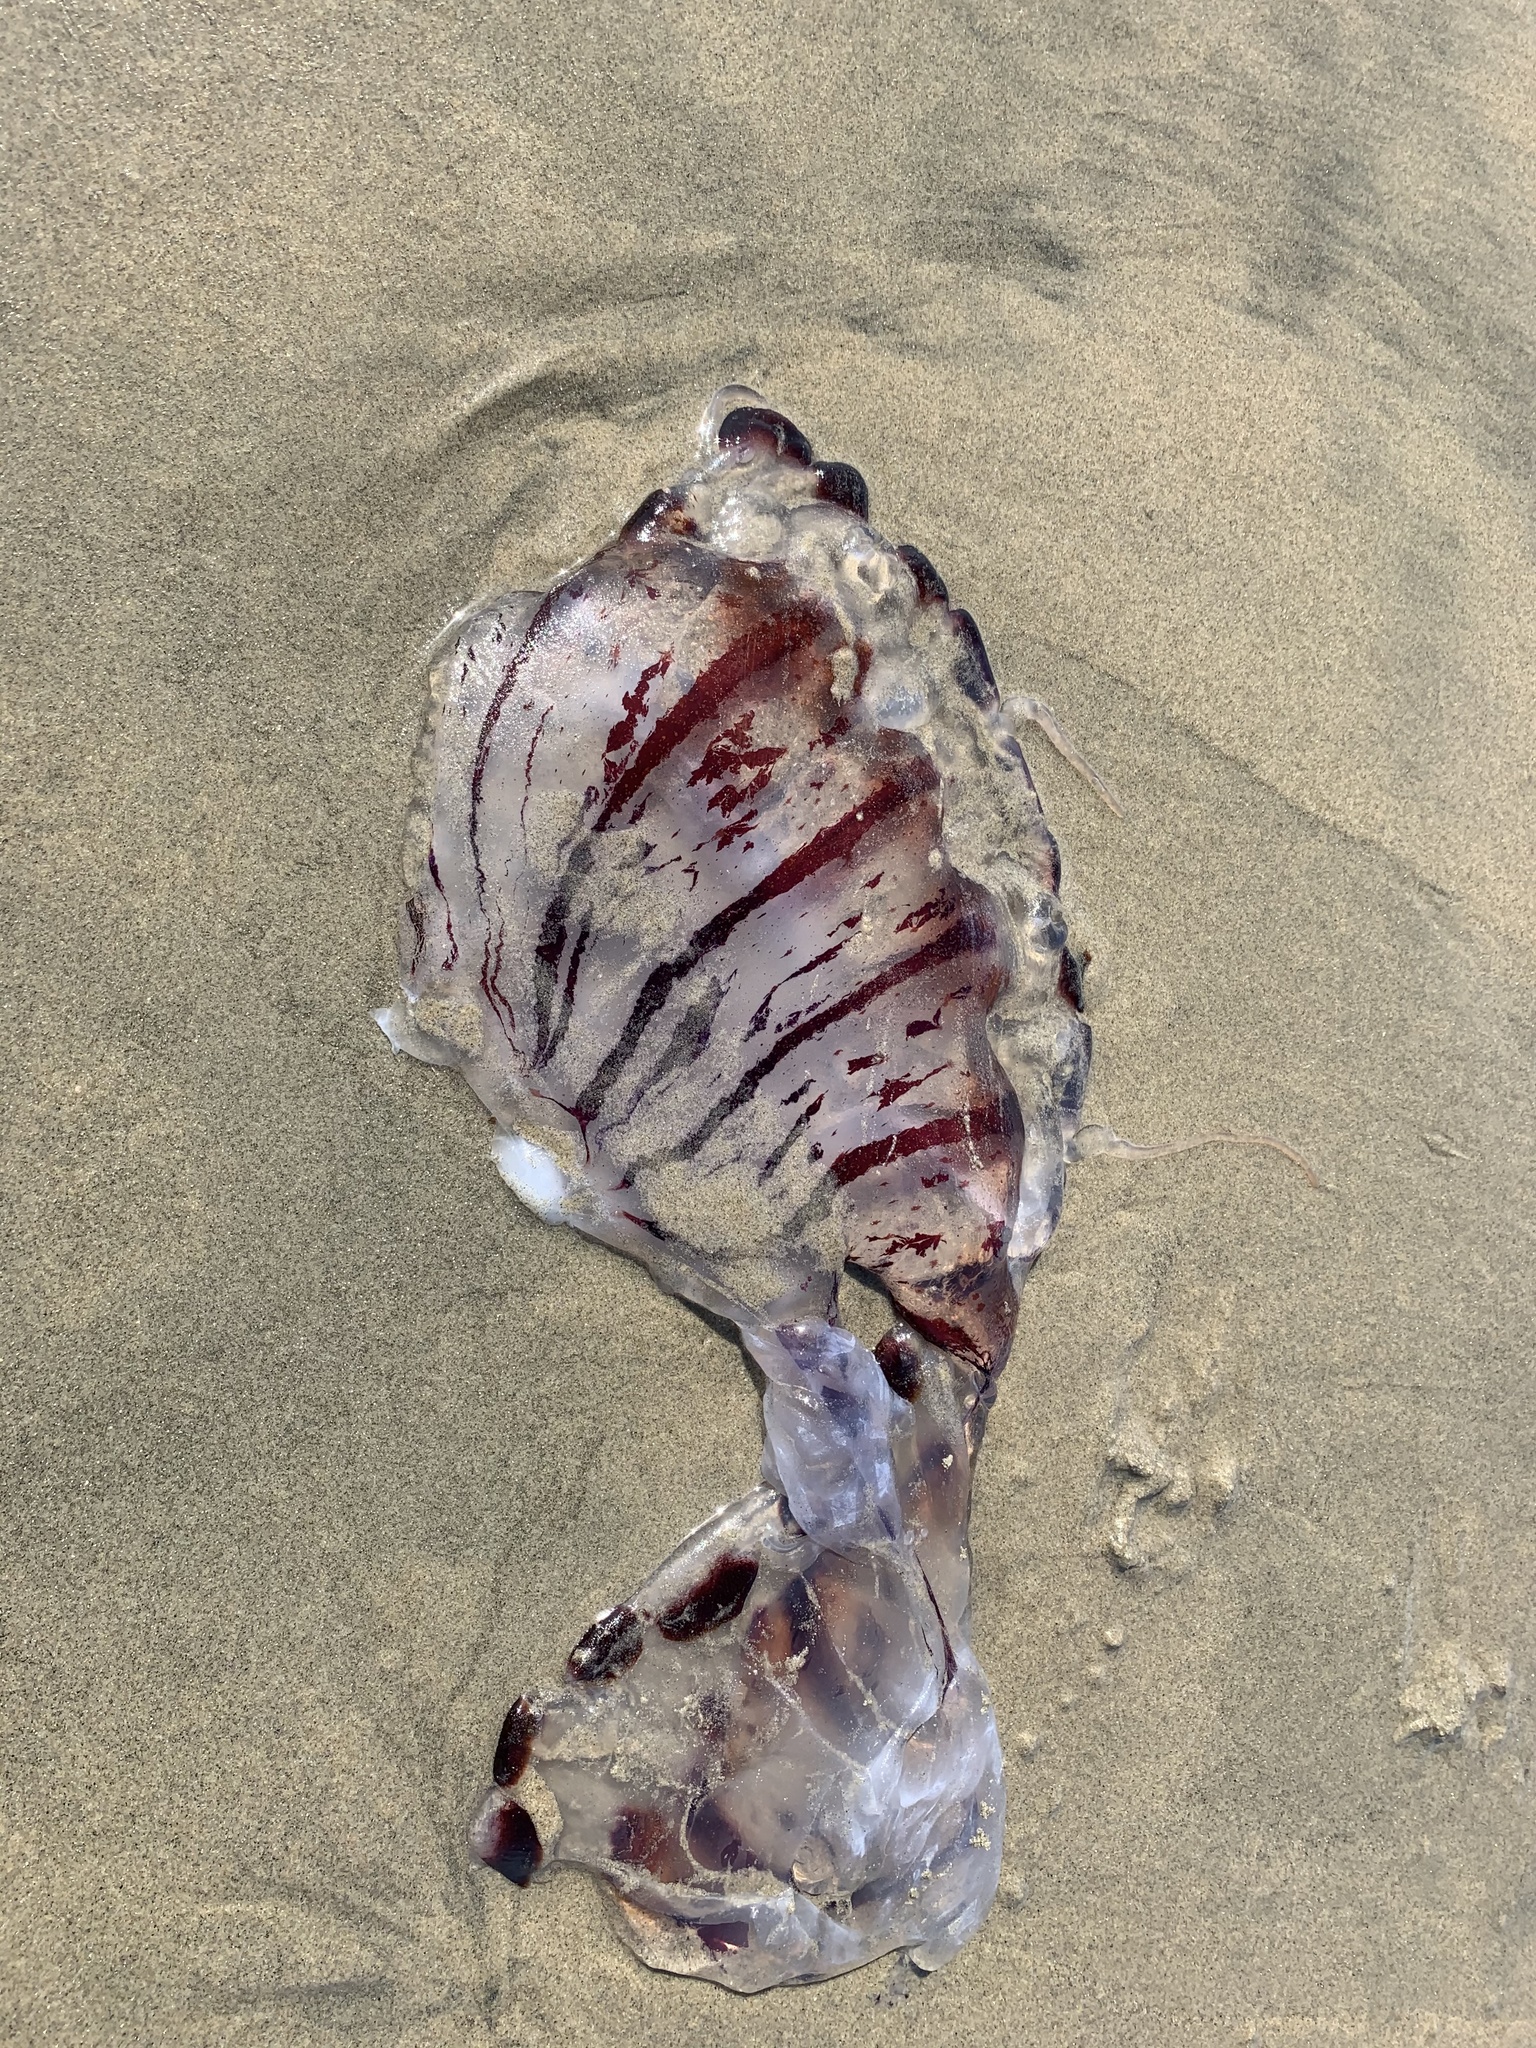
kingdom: Animalia
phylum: Cnidaria
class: Scyphozoa
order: Semaeostomeae
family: Pelagiidae
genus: Chrysaora
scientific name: Chrysaora colorata
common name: Purple-striped jellyfish
